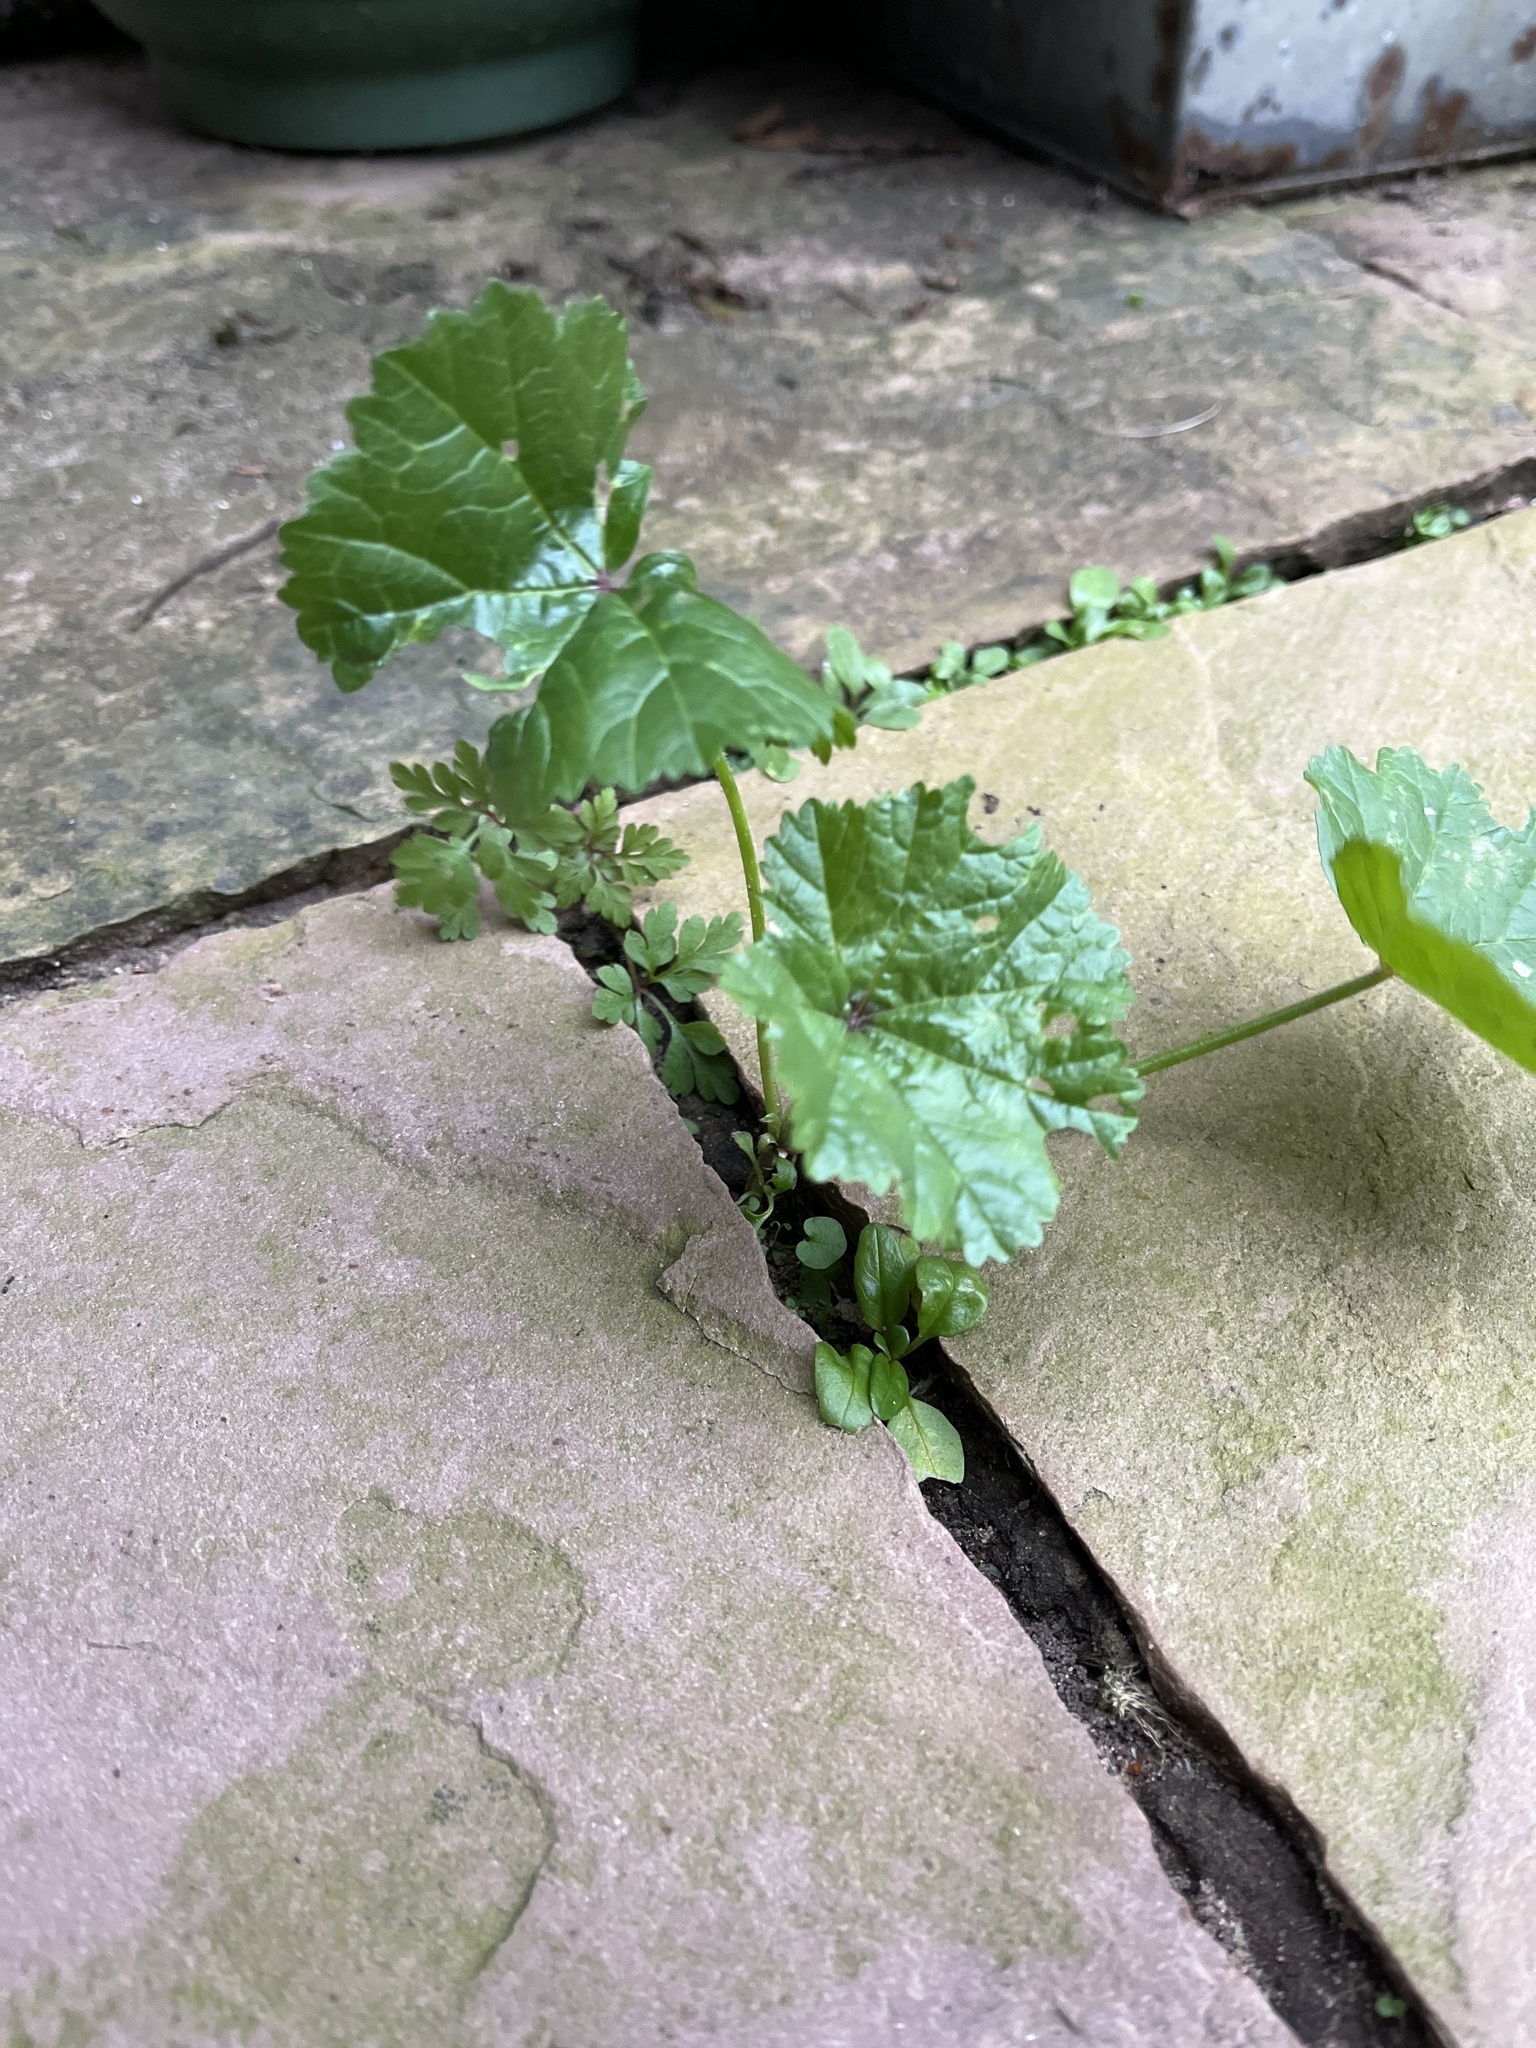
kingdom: Plantae
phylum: Tracheophyta
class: Magnoliopsida
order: Malvales
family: Malvaceae
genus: Malva
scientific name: Malva sylvestris
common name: Common mallow
